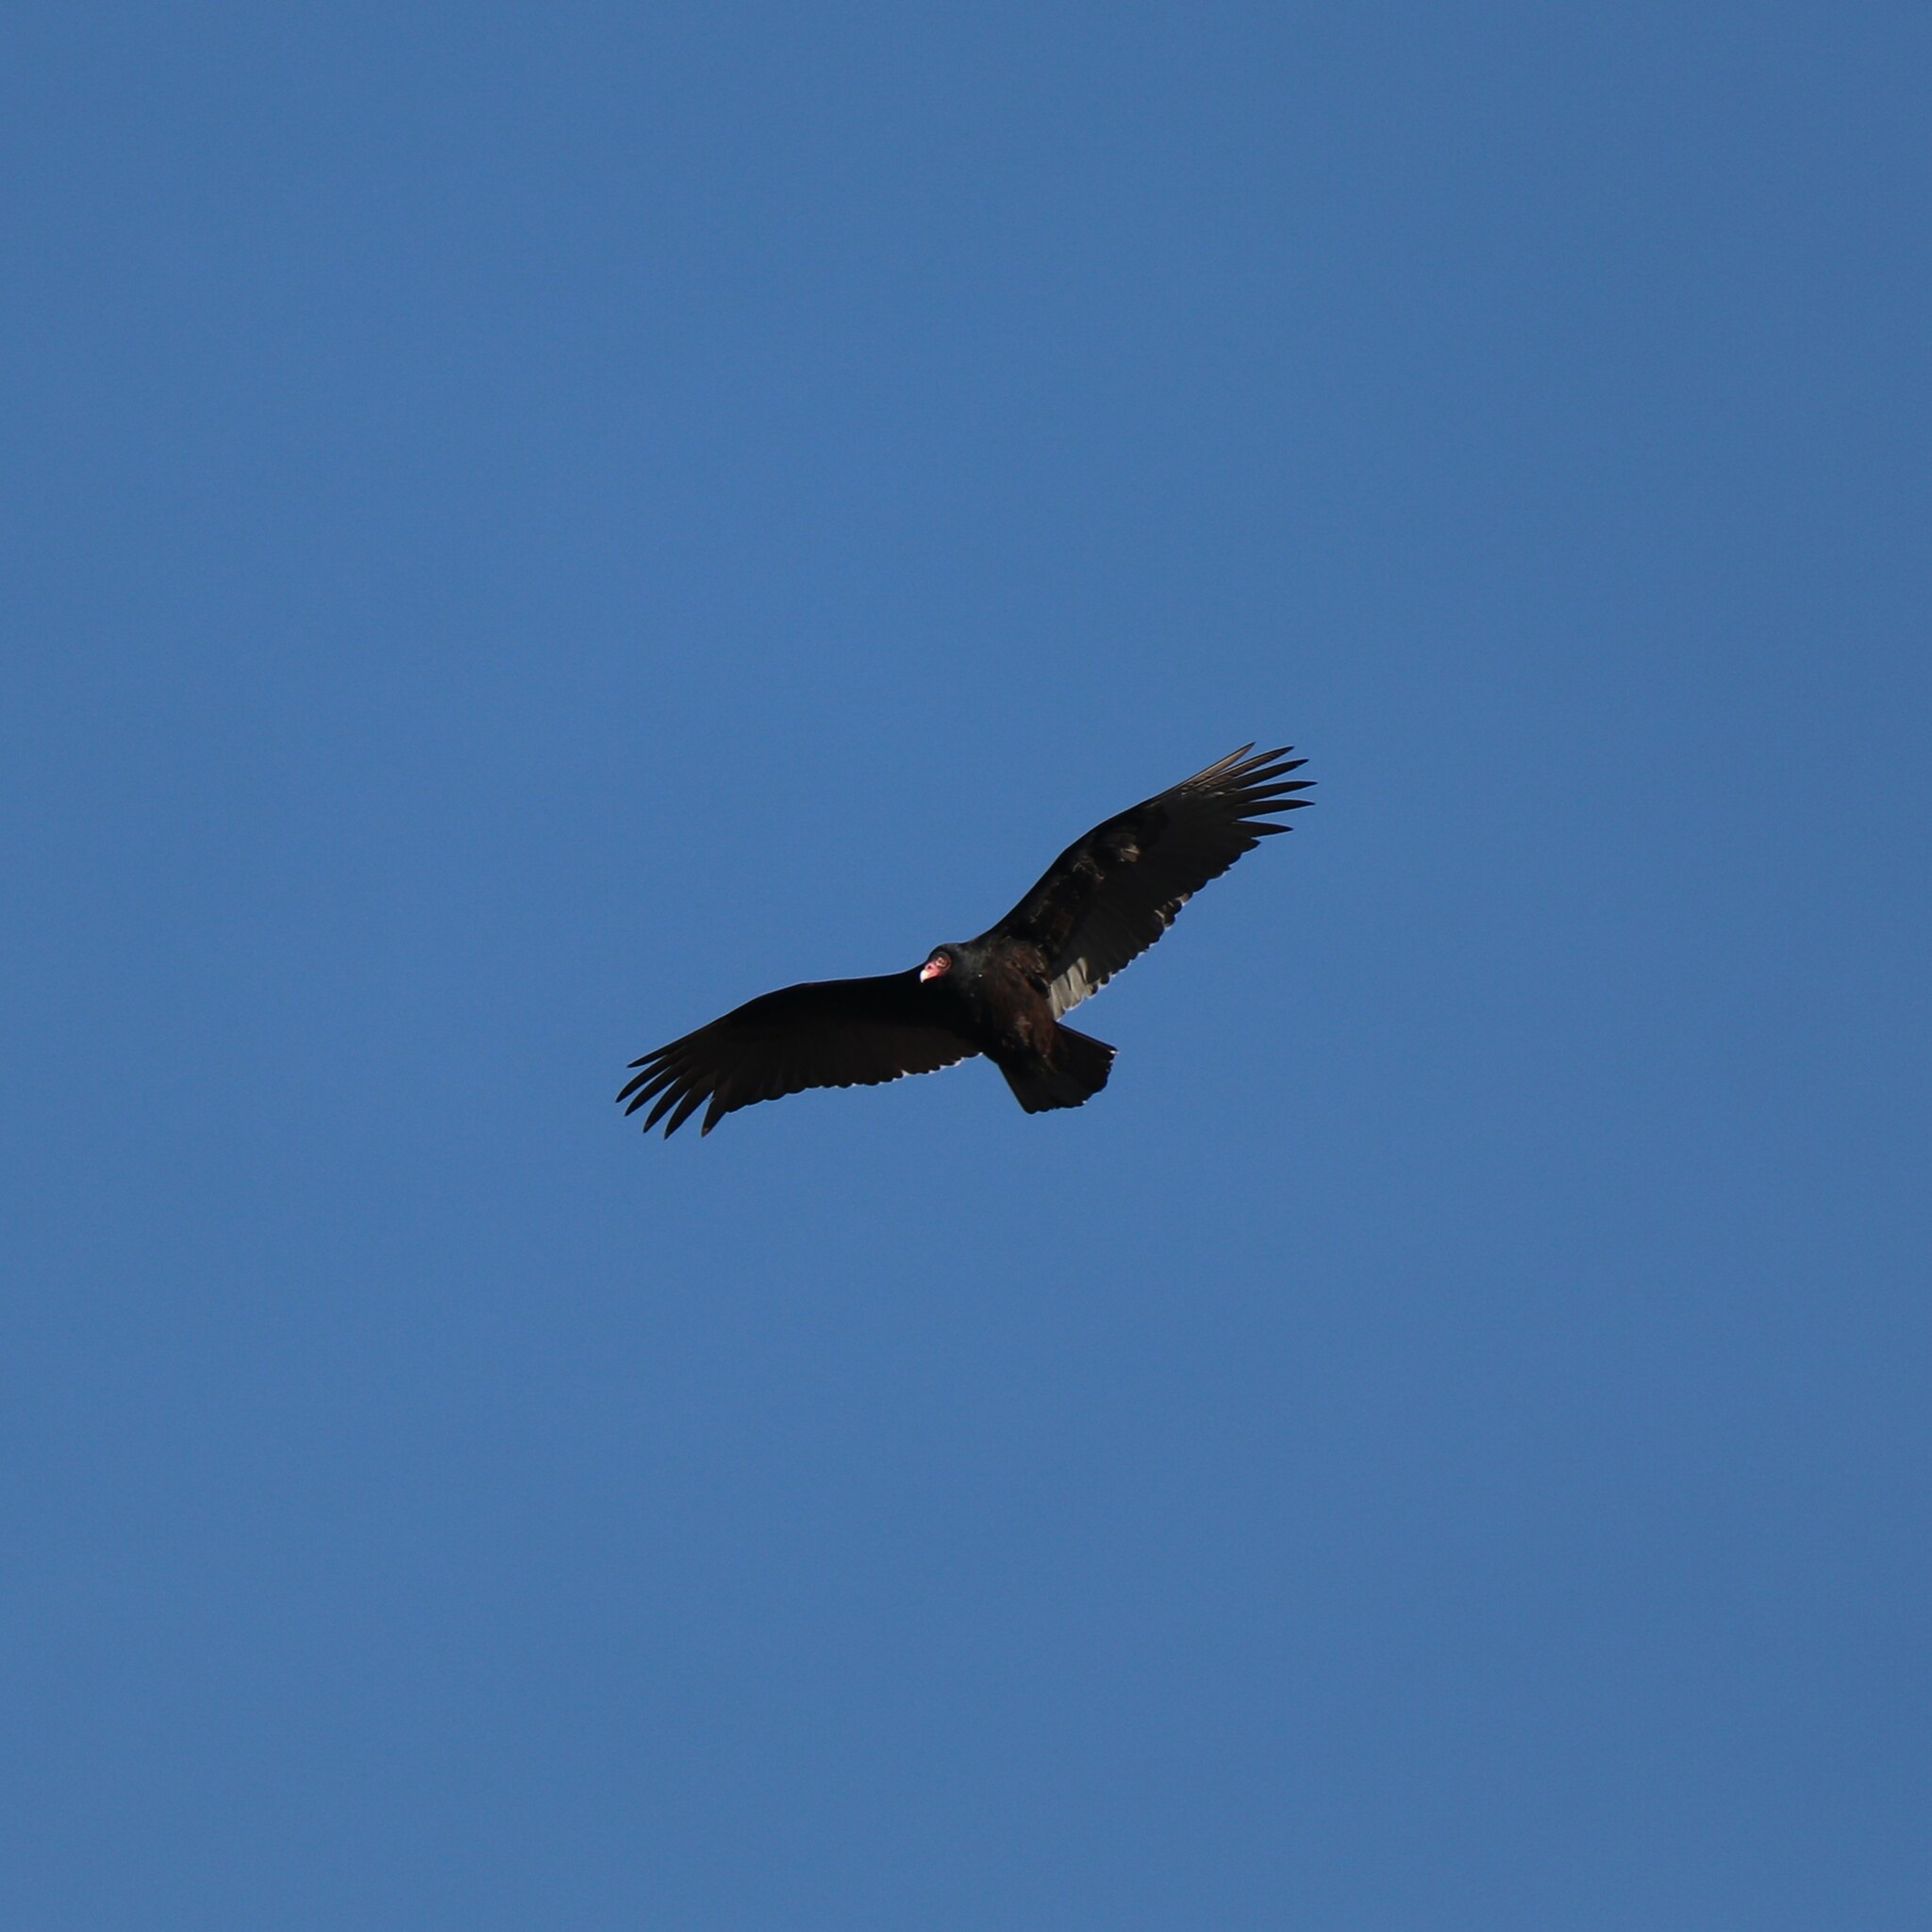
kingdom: Animalia
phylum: Chordata
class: Aves
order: Accipitriformes
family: Cathartidae
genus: Cathartes
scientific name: Cathartes aura
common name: Turkey vulture
